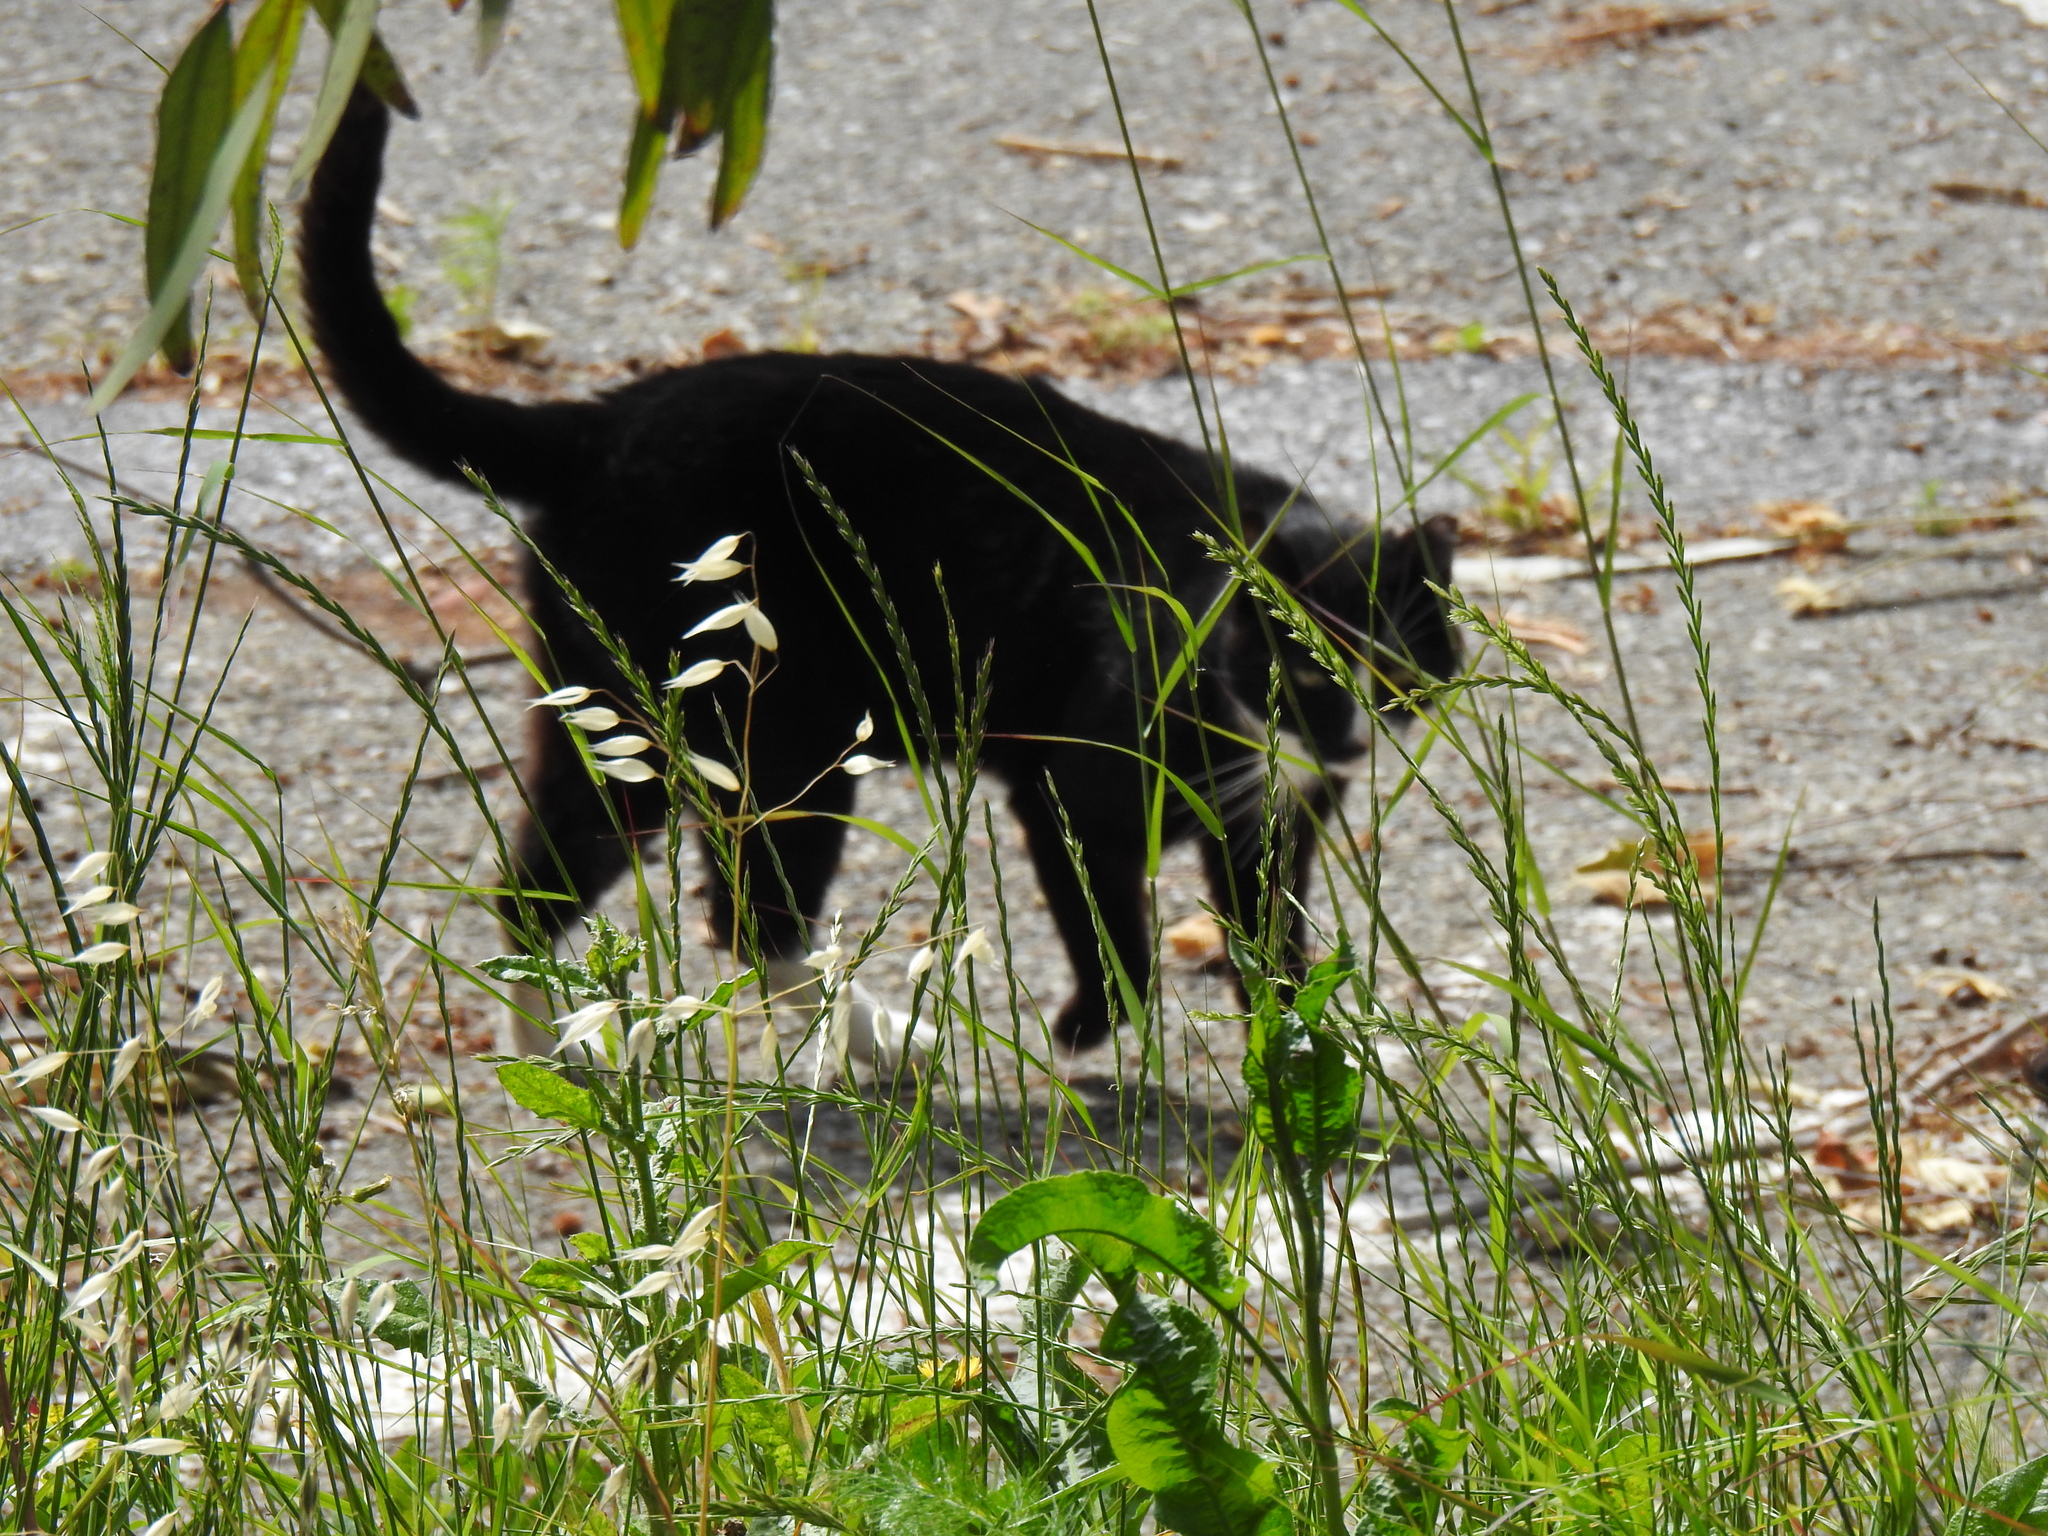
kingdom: Animalia
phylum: Chordata
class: Mammalia
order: Carnivora
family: Felidae
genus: Felis
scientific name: Felis catus
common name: Domestic cat
